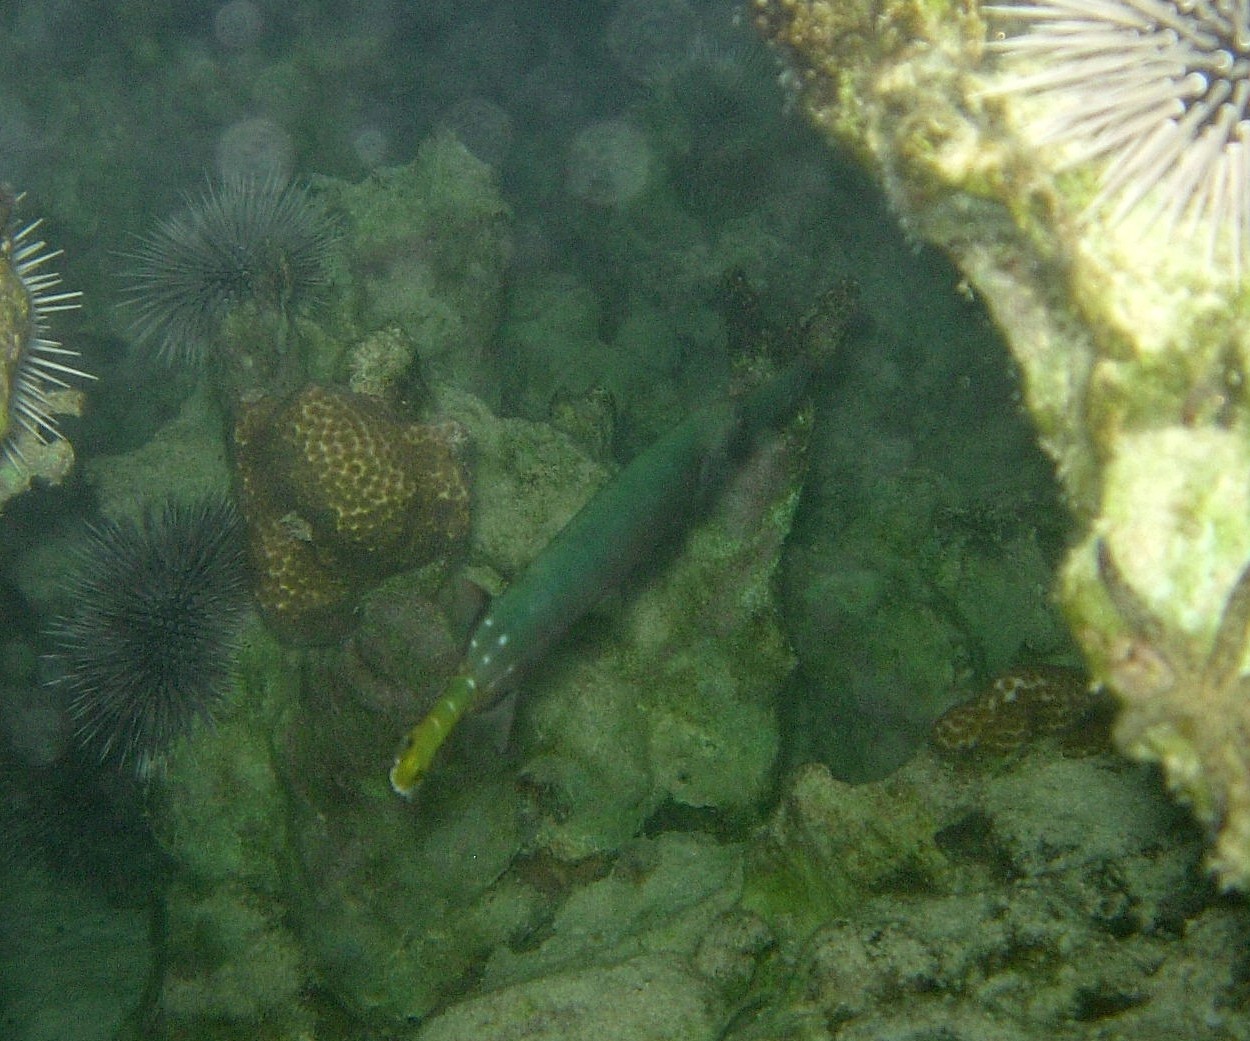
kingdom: Animalia
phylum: Chordata
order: Syngnathiformes
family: Aulostomidae
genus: Aulostomus
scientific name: Aulostomus chinensis
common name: Chinese trumpetfish
